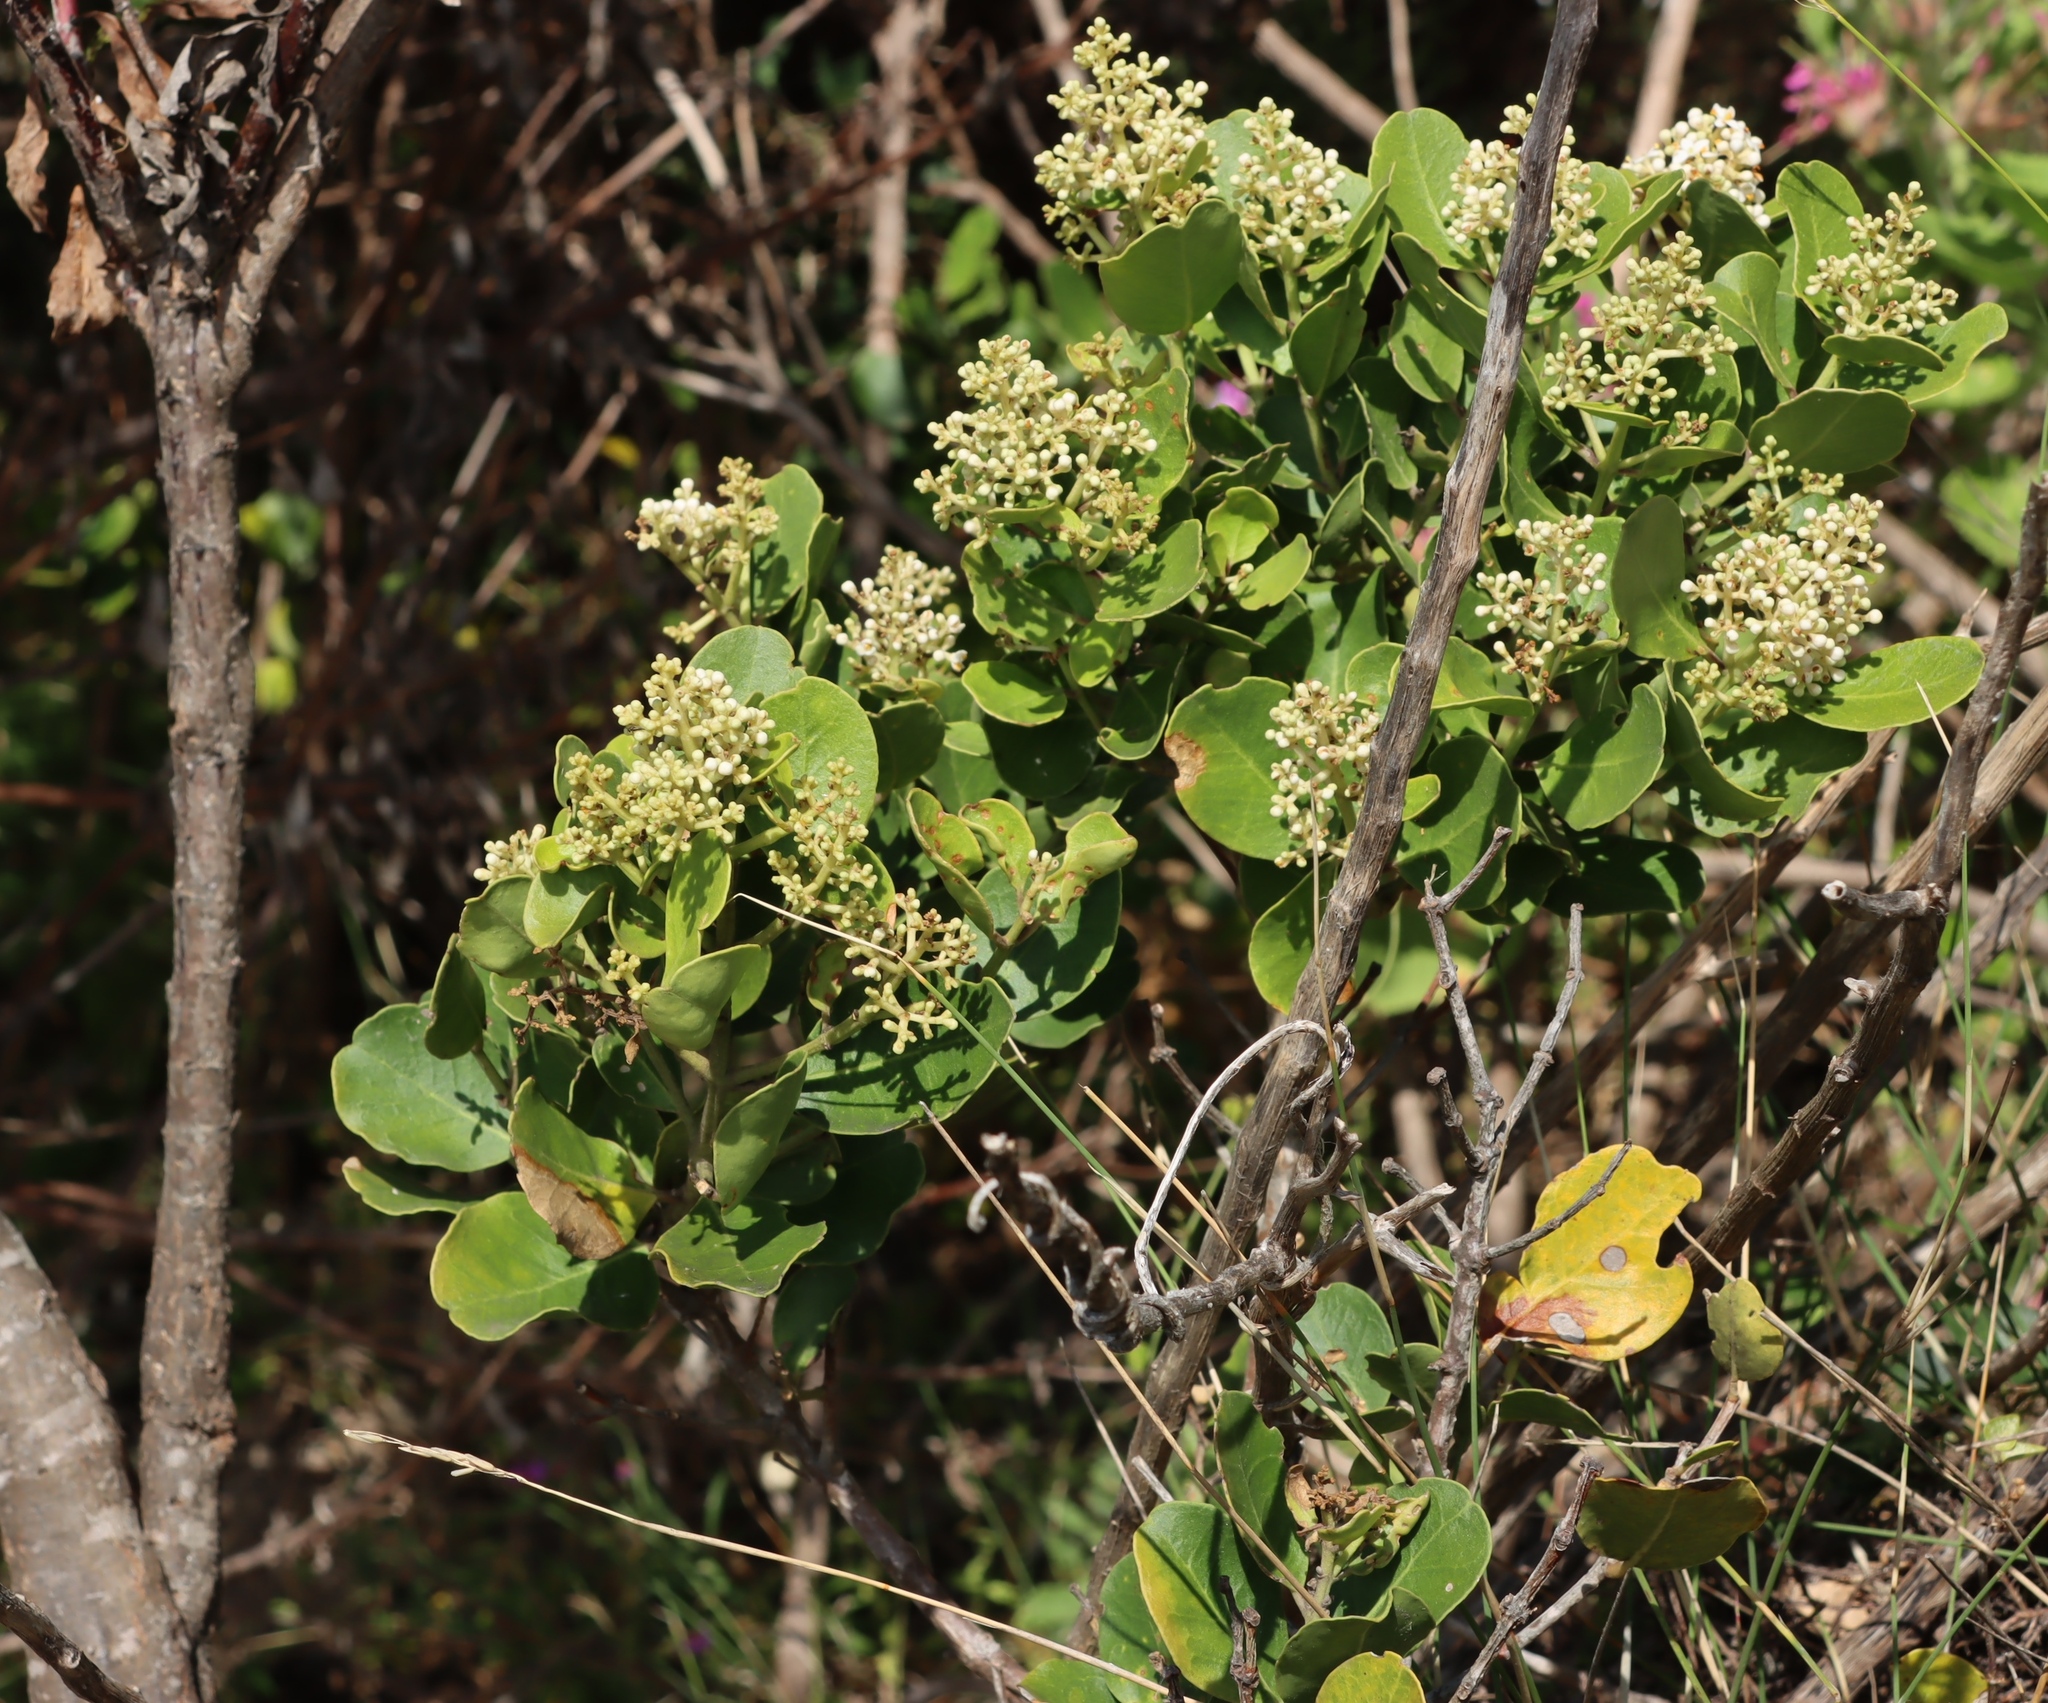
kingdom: Plantae
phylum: Tracheophyta
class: Magnoliopsida
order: Lamiales
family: Oleaceae
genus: Olea
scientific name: Olea capensis
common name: Black ironwood
